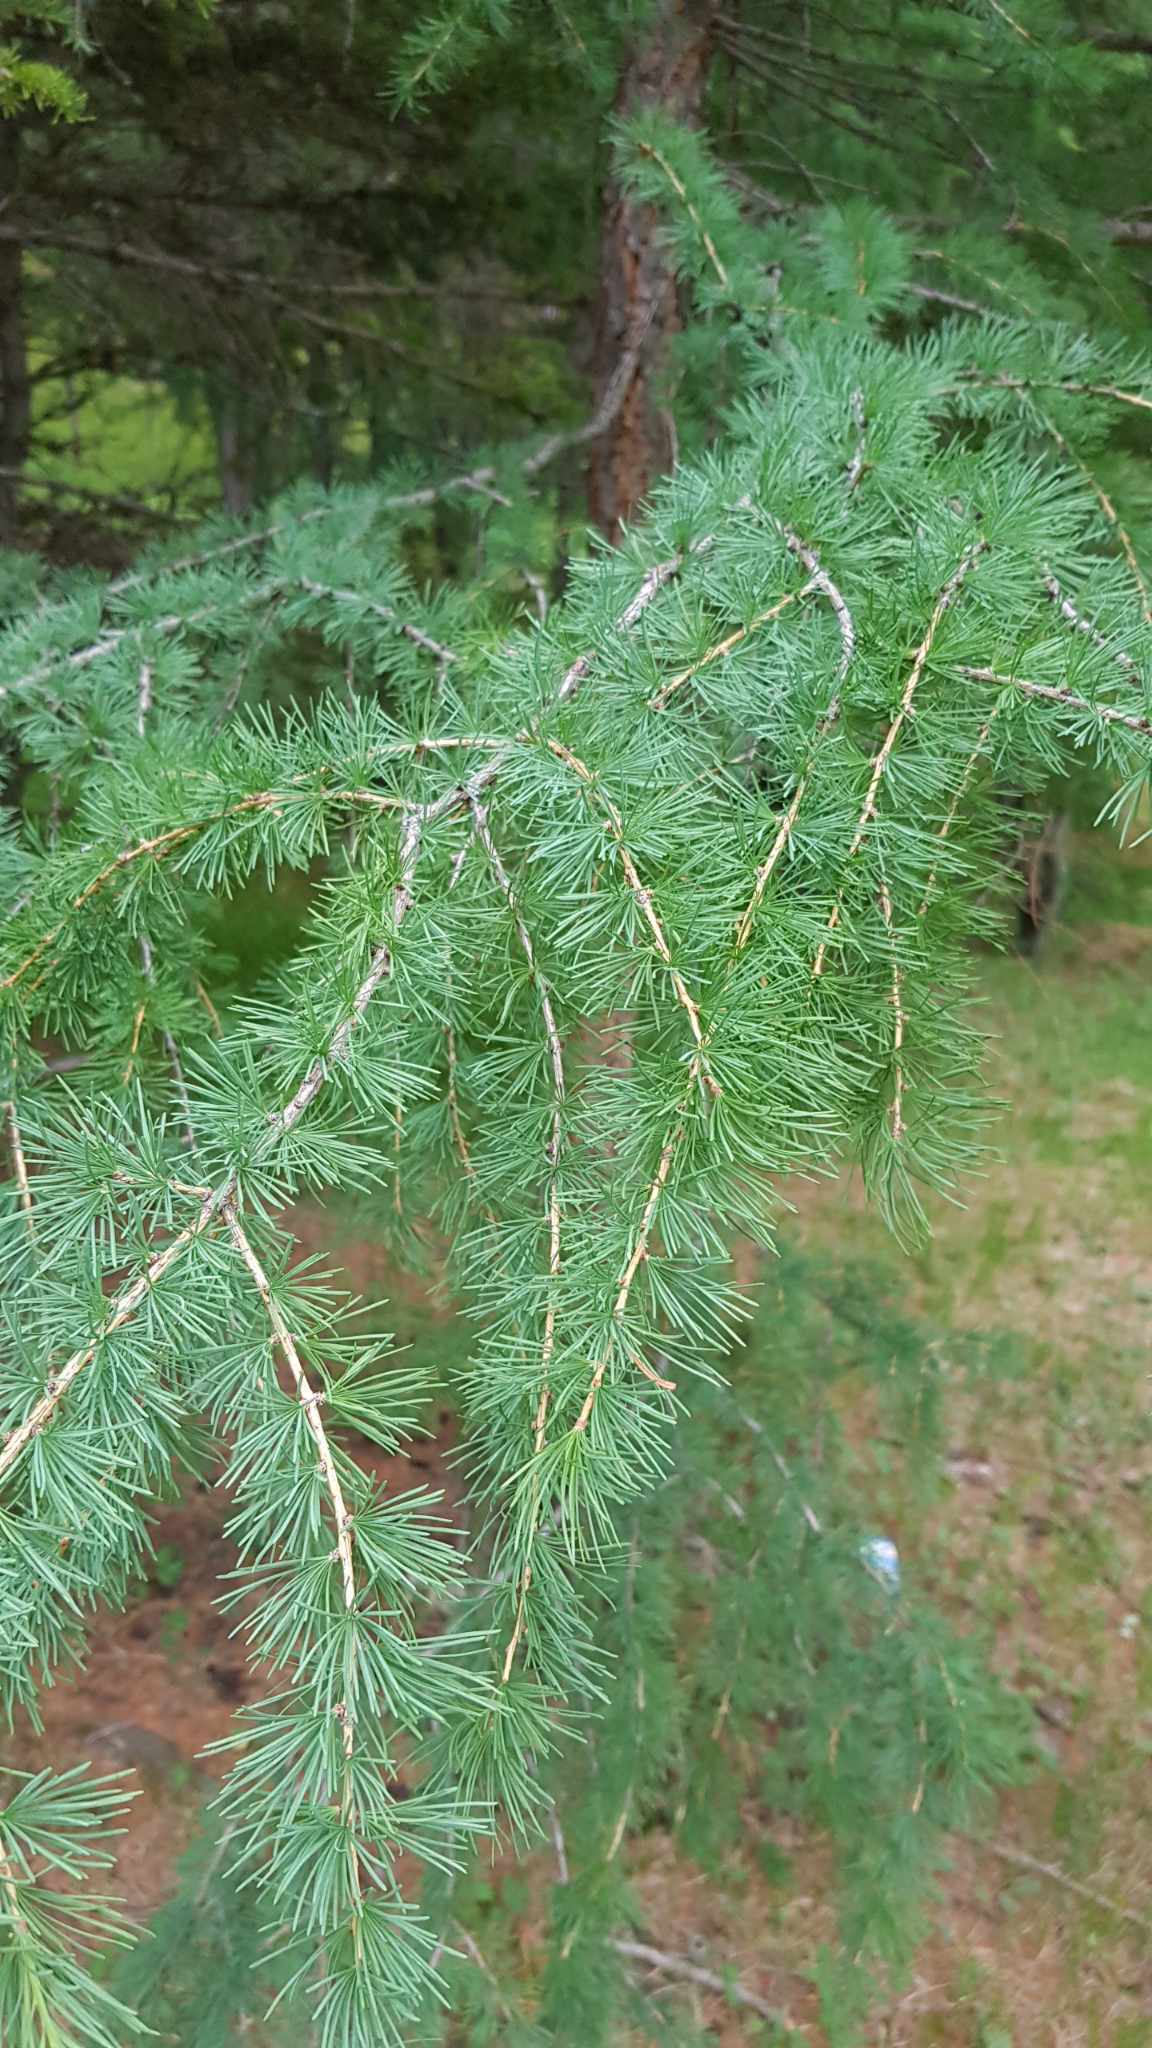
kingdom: Plantae
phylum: Tracheophyta
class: Pinopsida
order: Pinales
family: Pinaceae
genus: Larix
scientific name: Larix sibirica
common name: Siberian larch
